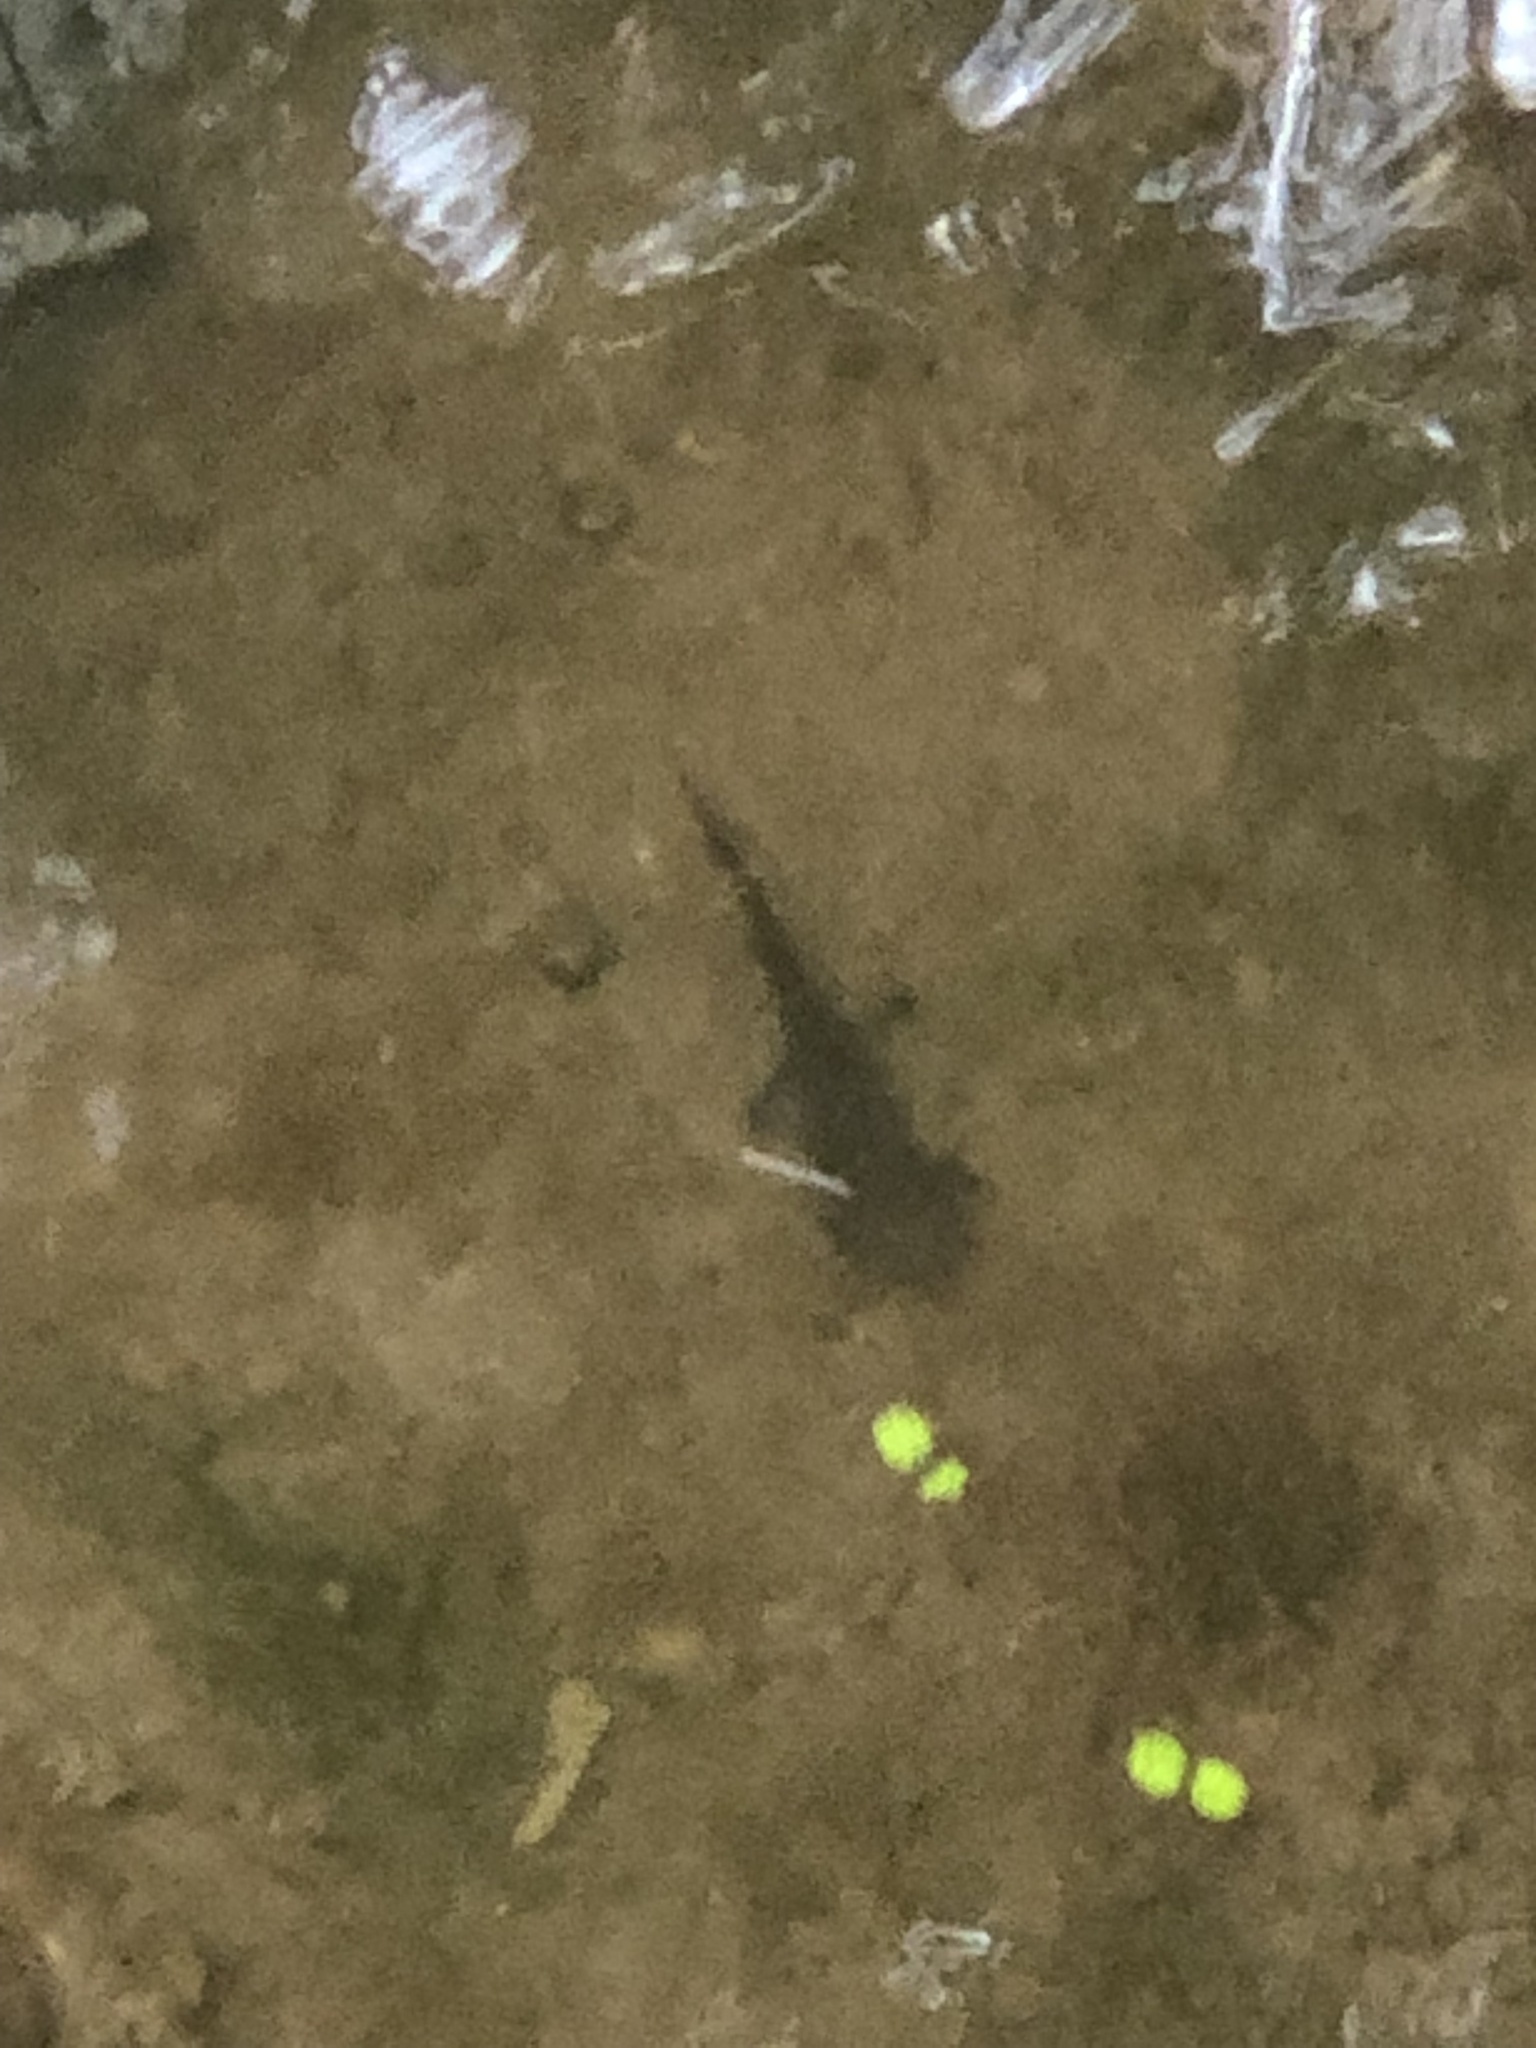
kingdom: Animalia
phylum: Chordata
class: Amphibia
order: Caudata
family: Ambystomatidae
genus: Ambystoma
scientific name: Ambystoma maculatum
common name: Spotted salamander
